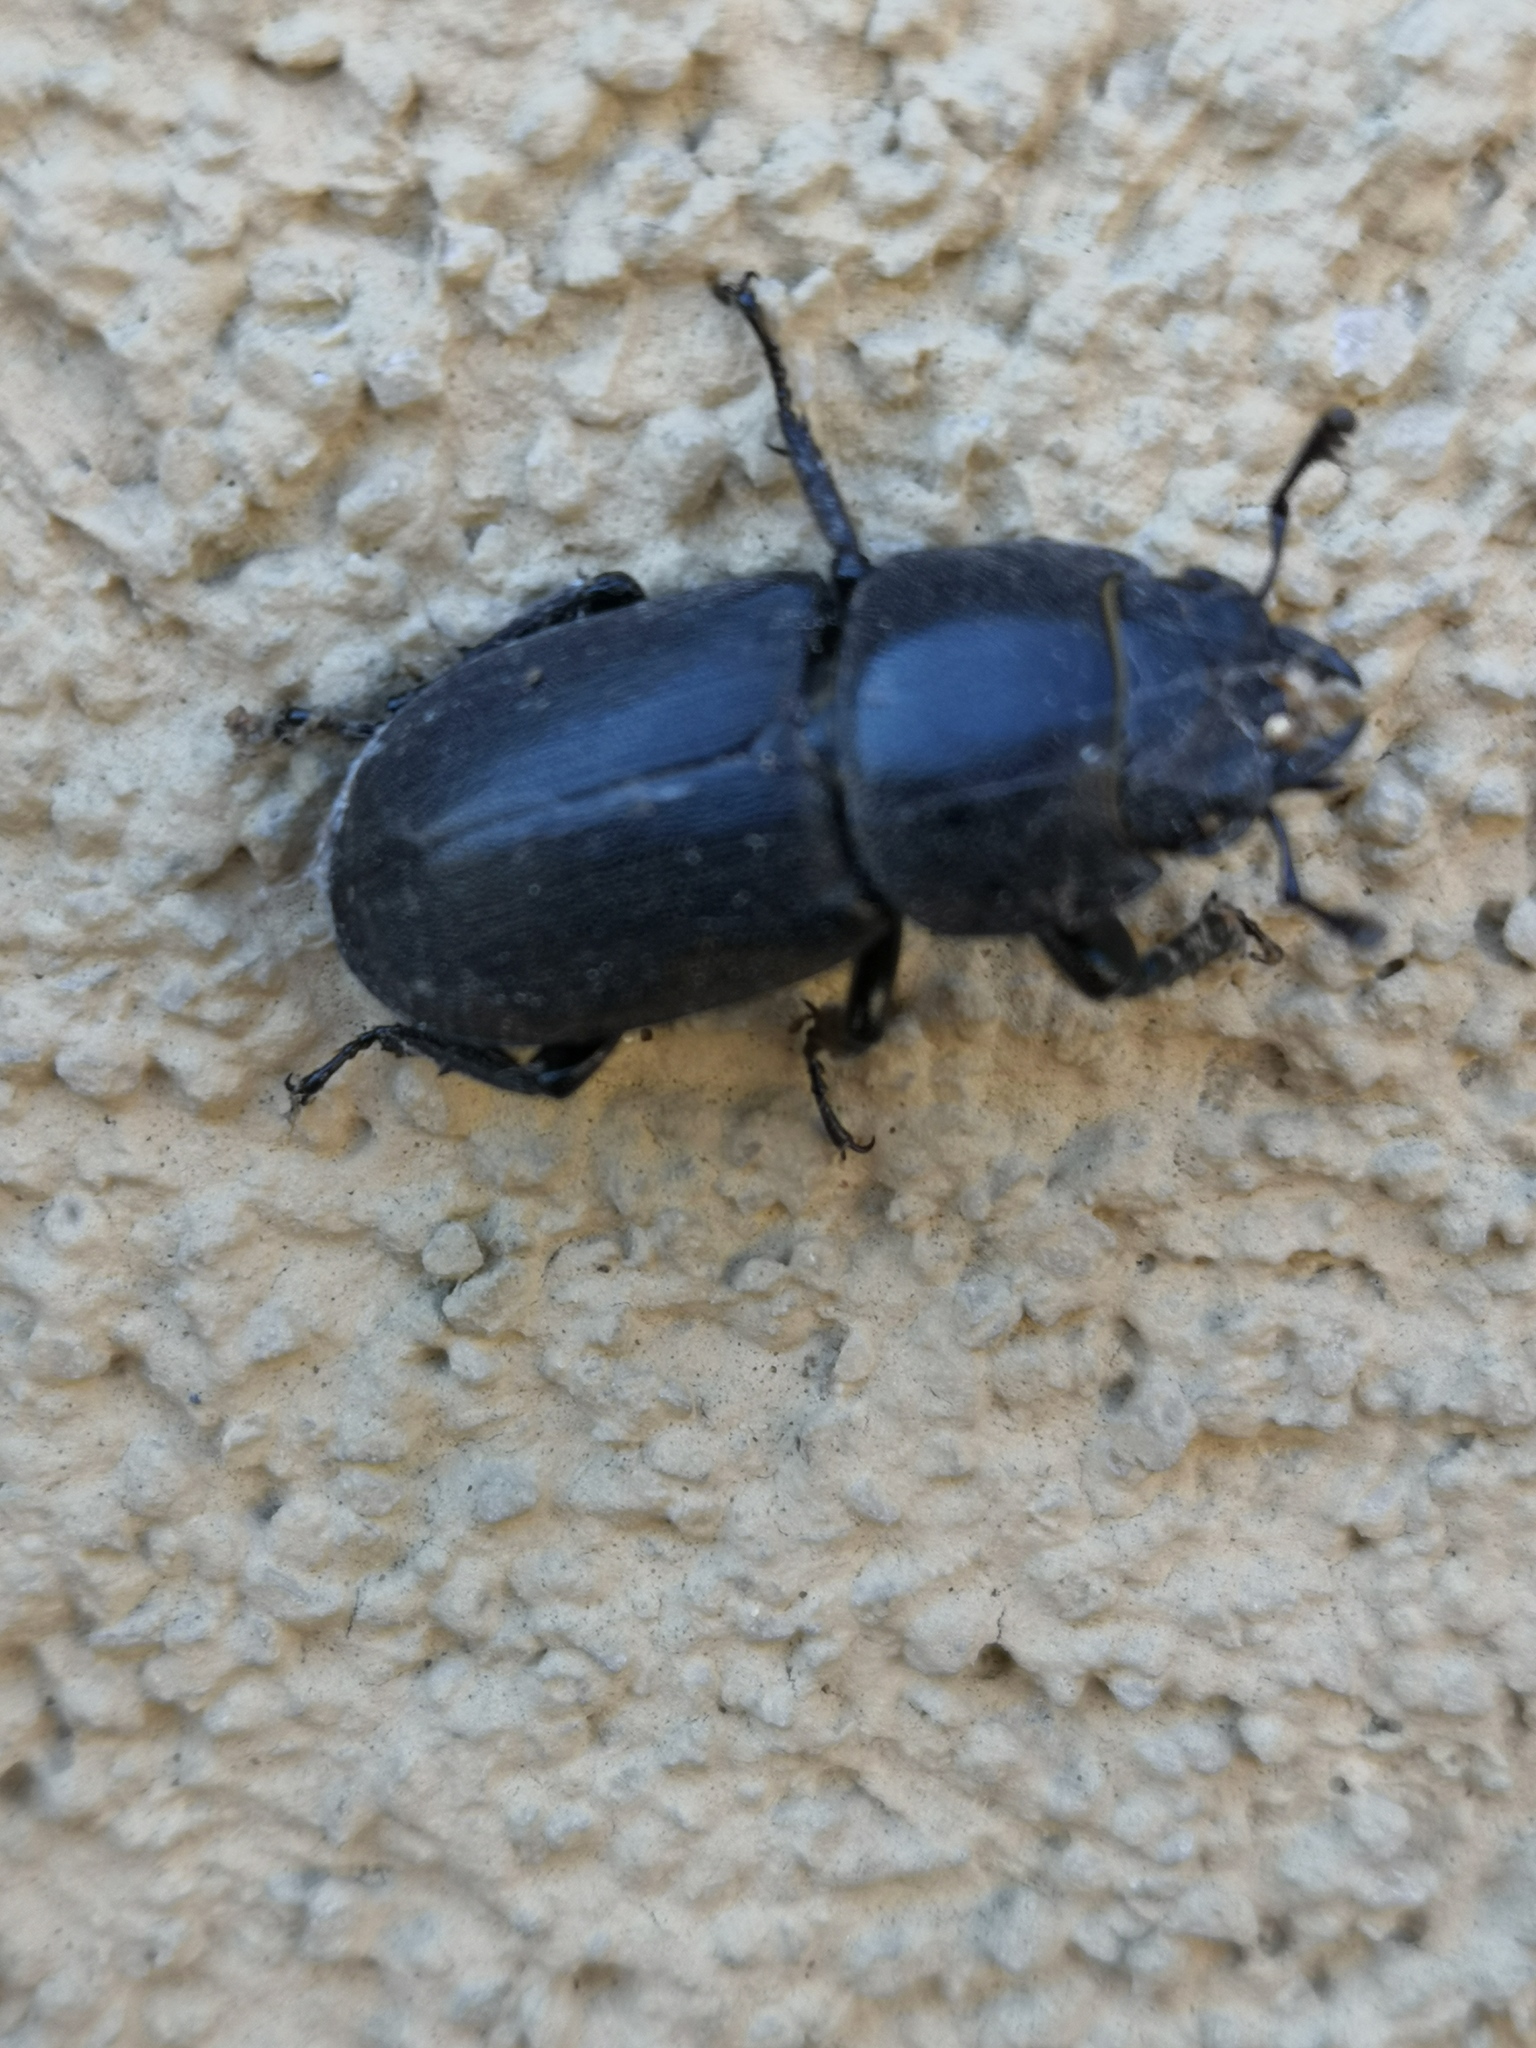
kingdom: Animalia
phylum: Arthropoda
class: Insecta
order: Coleoptera
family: Lucanidae
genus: Dorcus
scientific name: Dorcus parallelipipedus
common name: Lesser stag beetle
